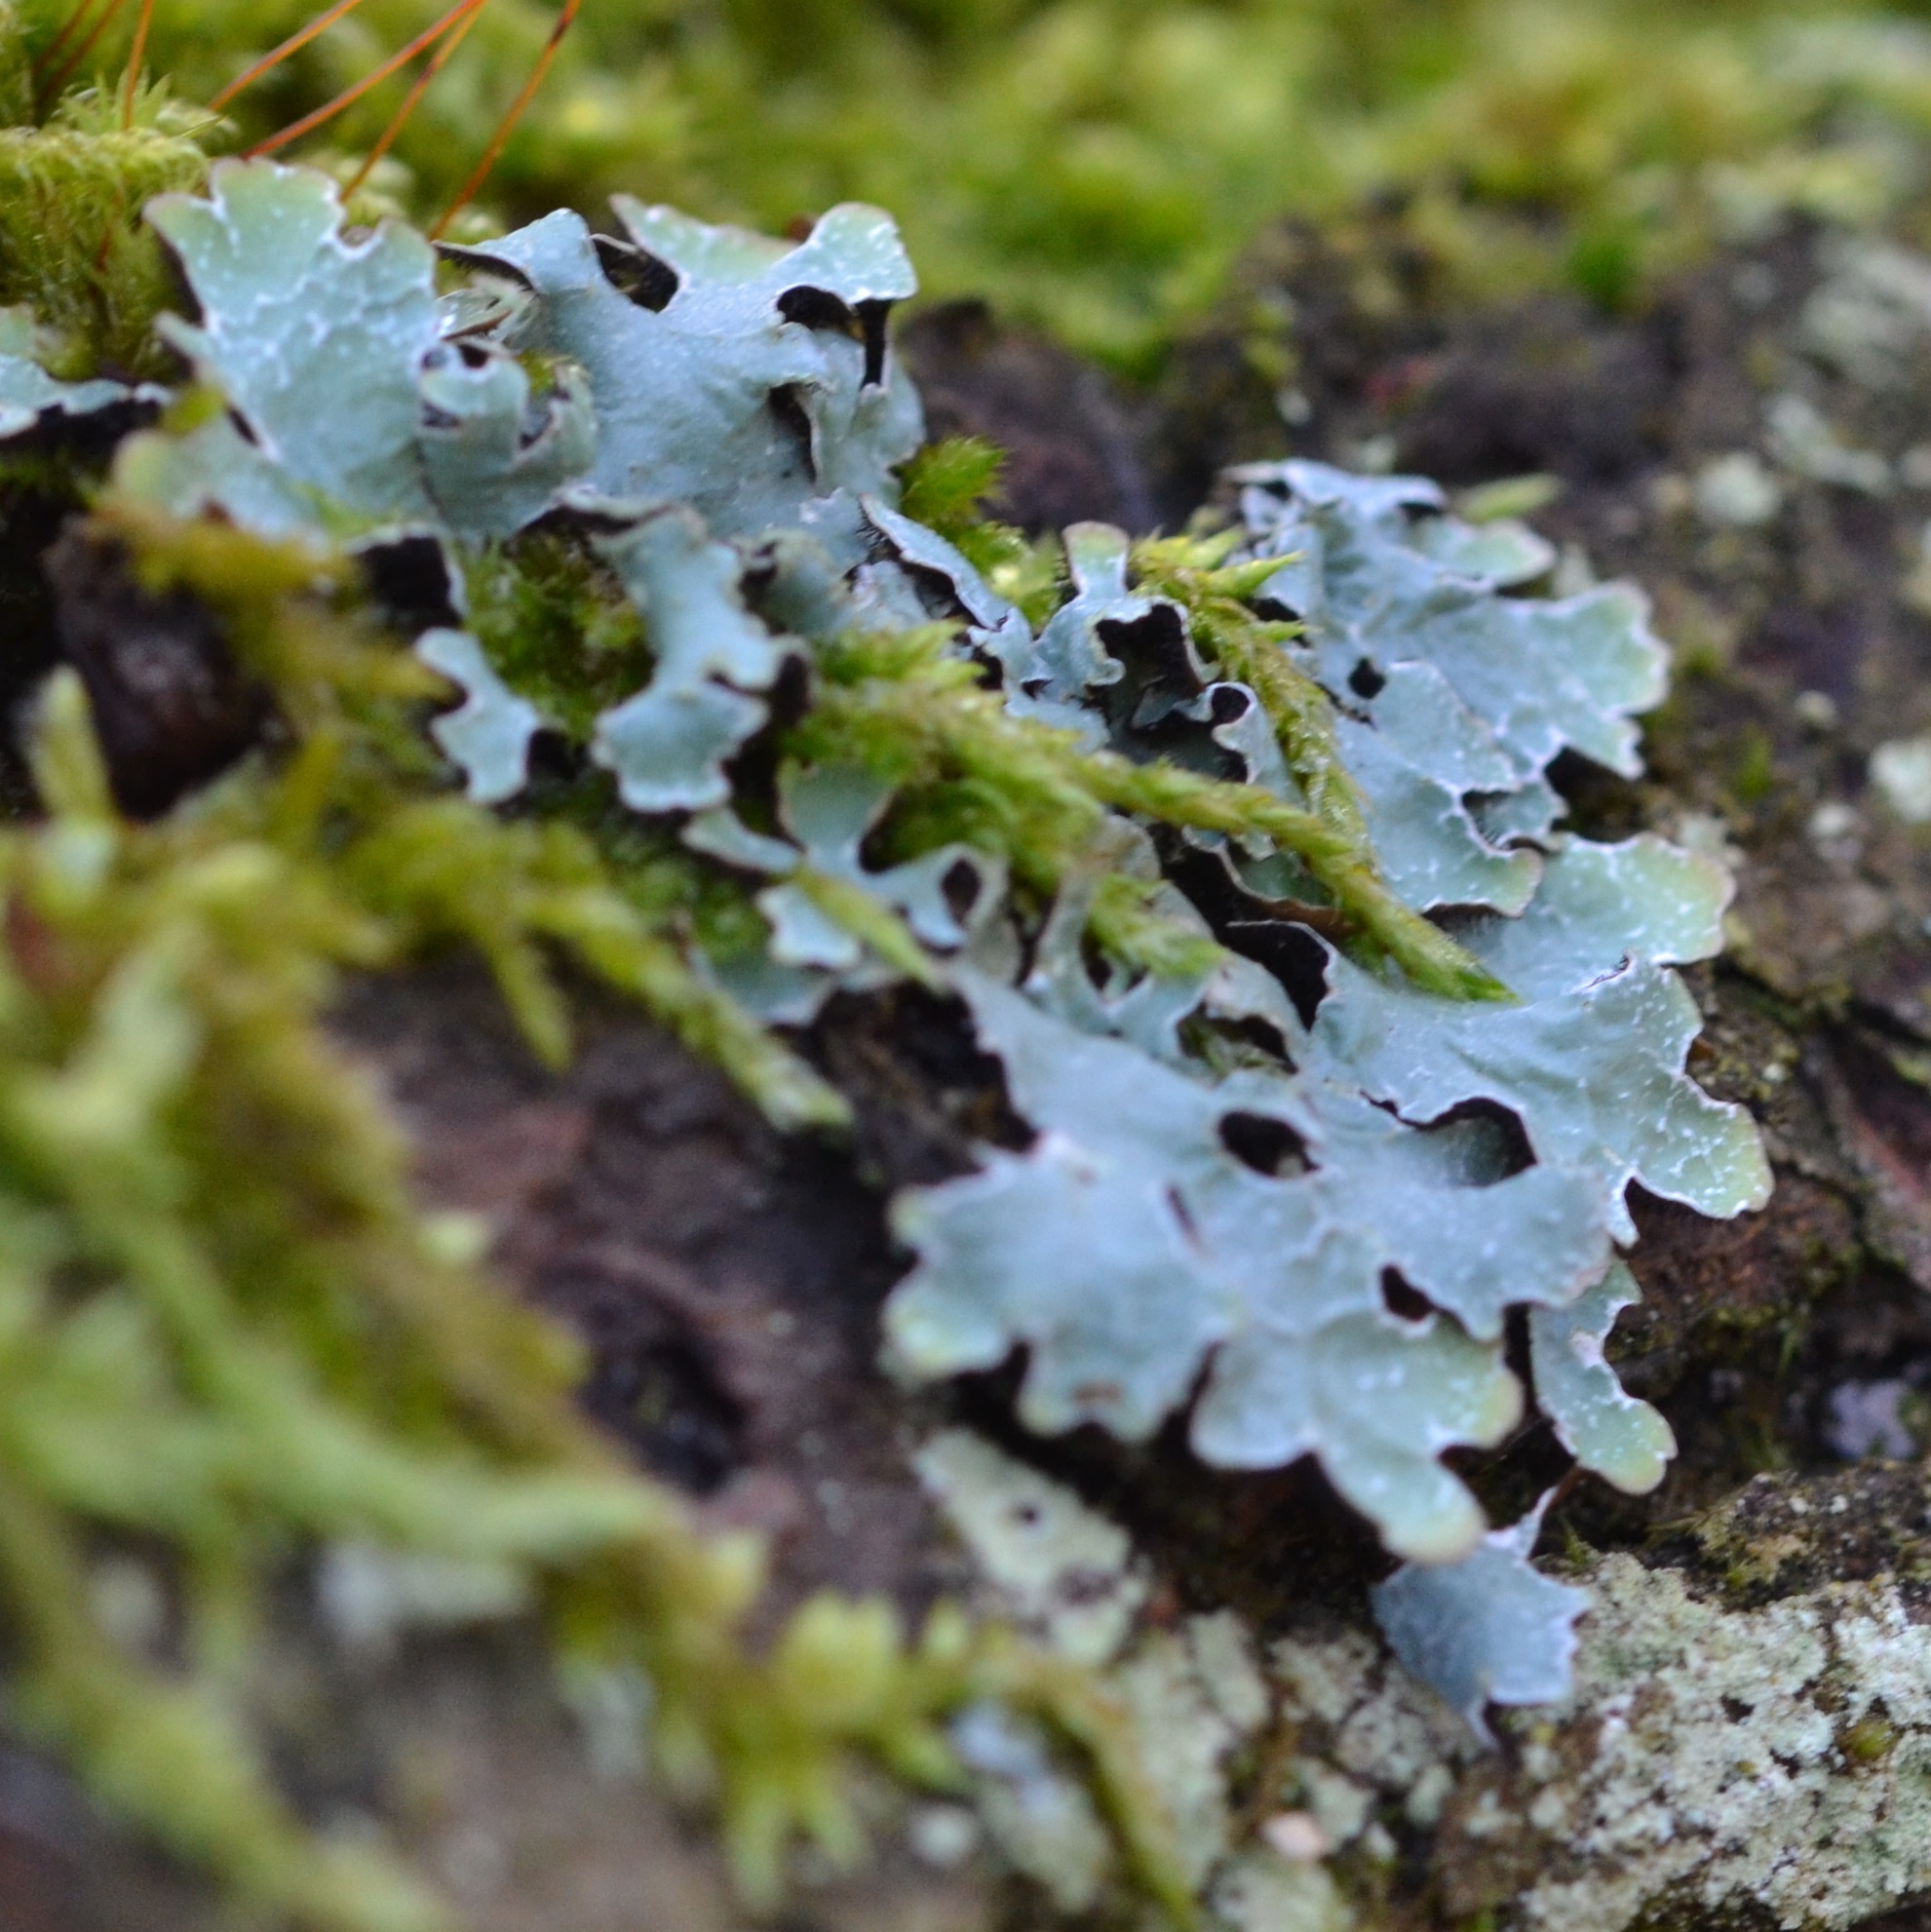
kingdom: Fungi
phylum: Ascomycota
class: Lecanoromycetes
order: Lecanorales
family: Parmeliaceae
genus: Parmelia
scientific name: Parmelia sulcata
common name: Netted shield lichen
